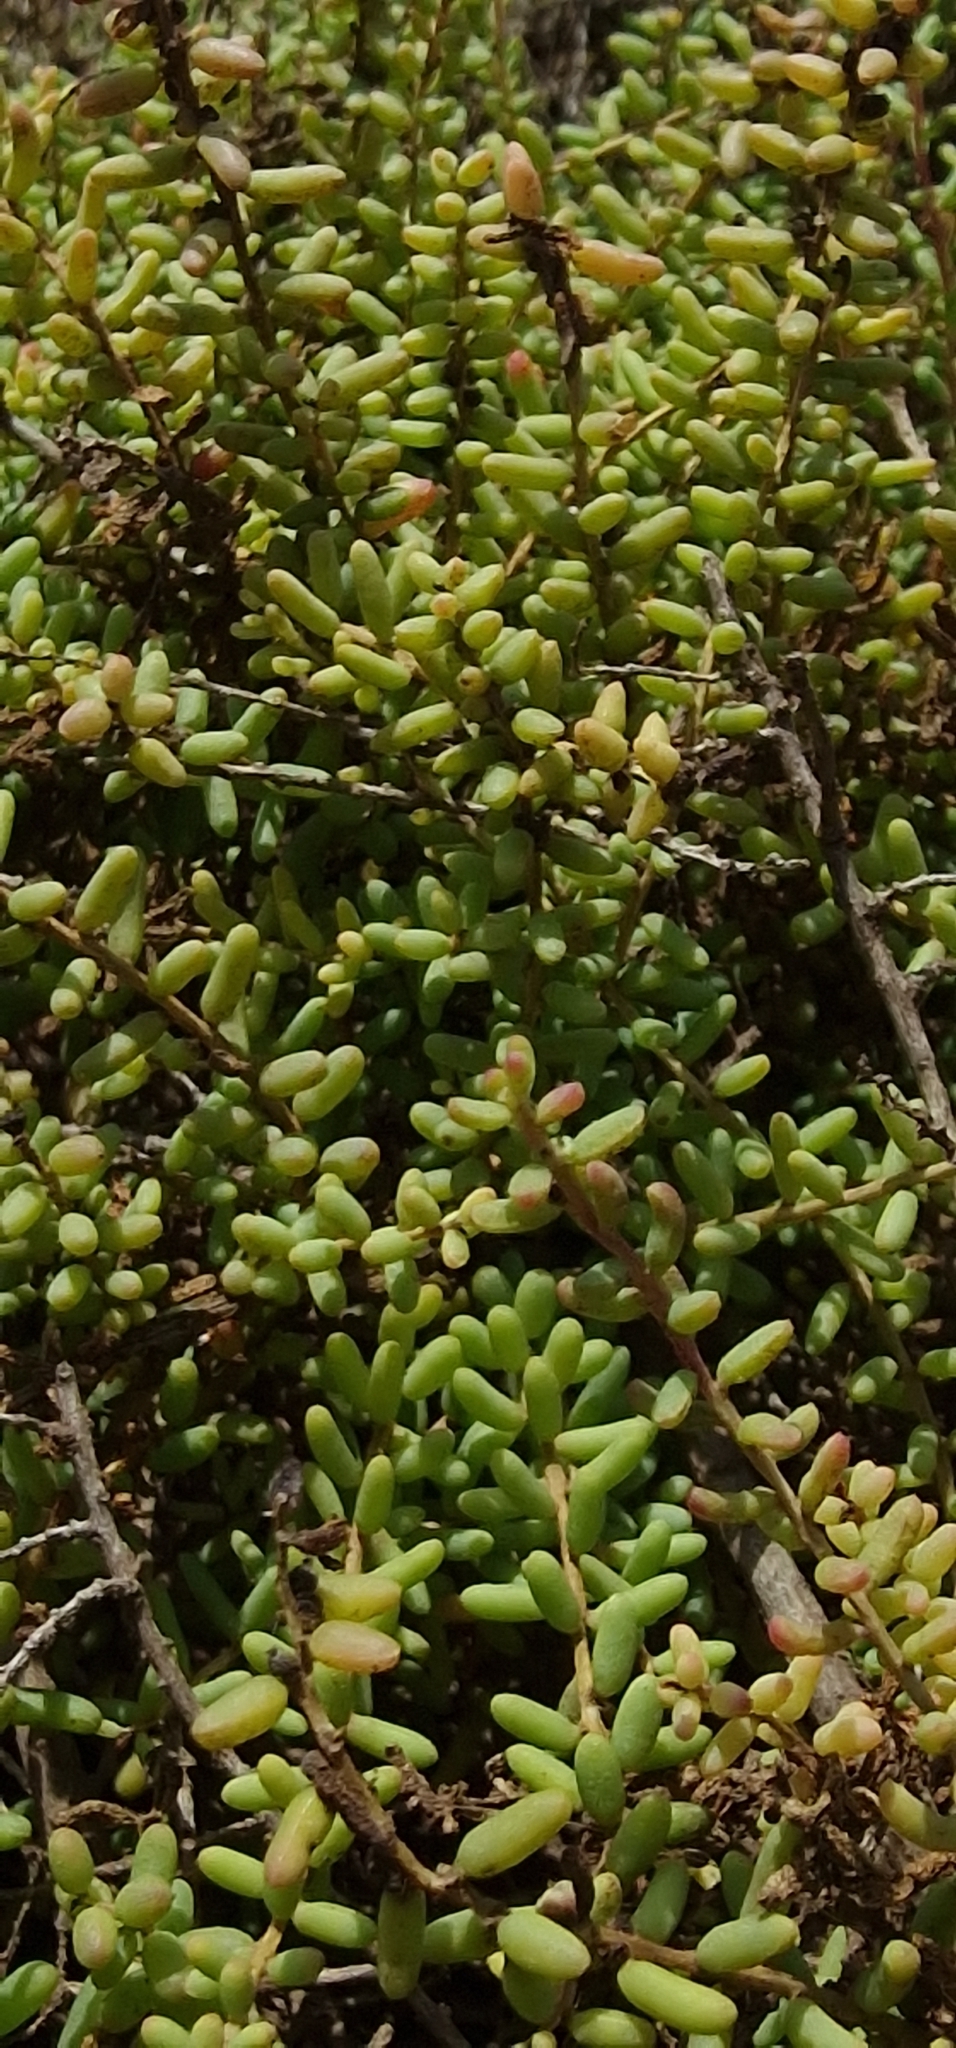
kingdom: Plantae
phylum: Tracheophyta
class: Magnoliopsida
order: Caryophyllales
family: Amaranthaceae
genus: Suaeda
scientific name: Suaeda vera
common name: Shrubby sea-blite
